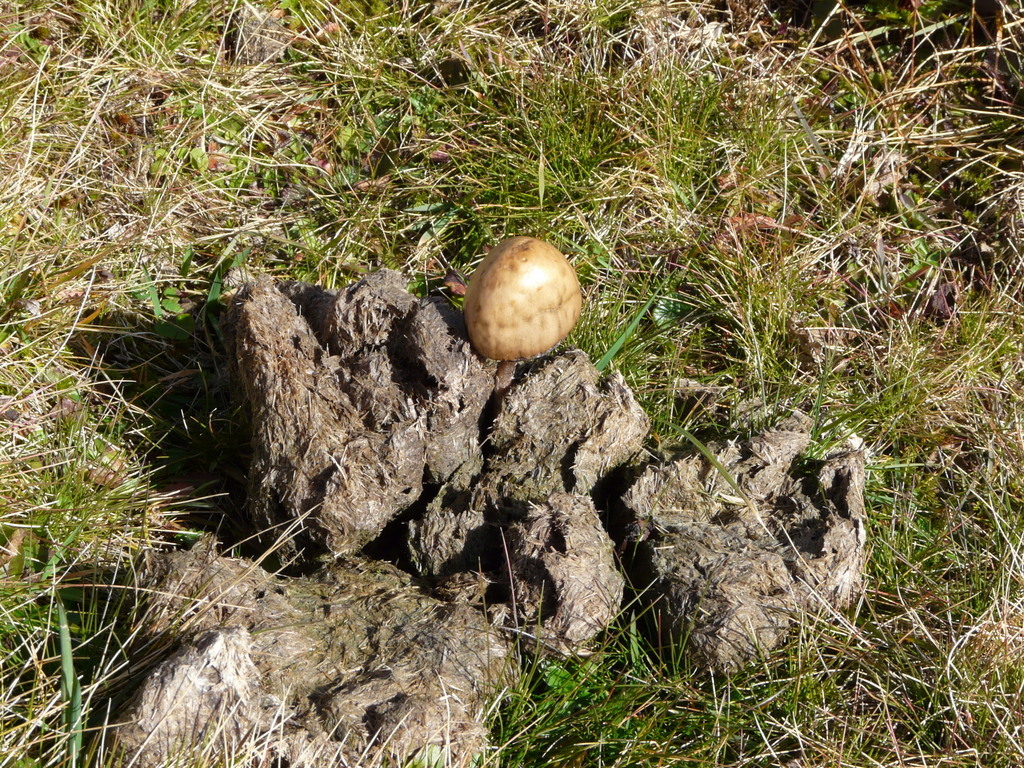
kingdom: Fungi
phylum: Basidiomycota
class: Agaricomycetes
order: Agaricales
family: Bolbitiaceae
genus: Panaeolus
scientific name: Panaeolus semiovatus
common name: Shiny mottlegill
